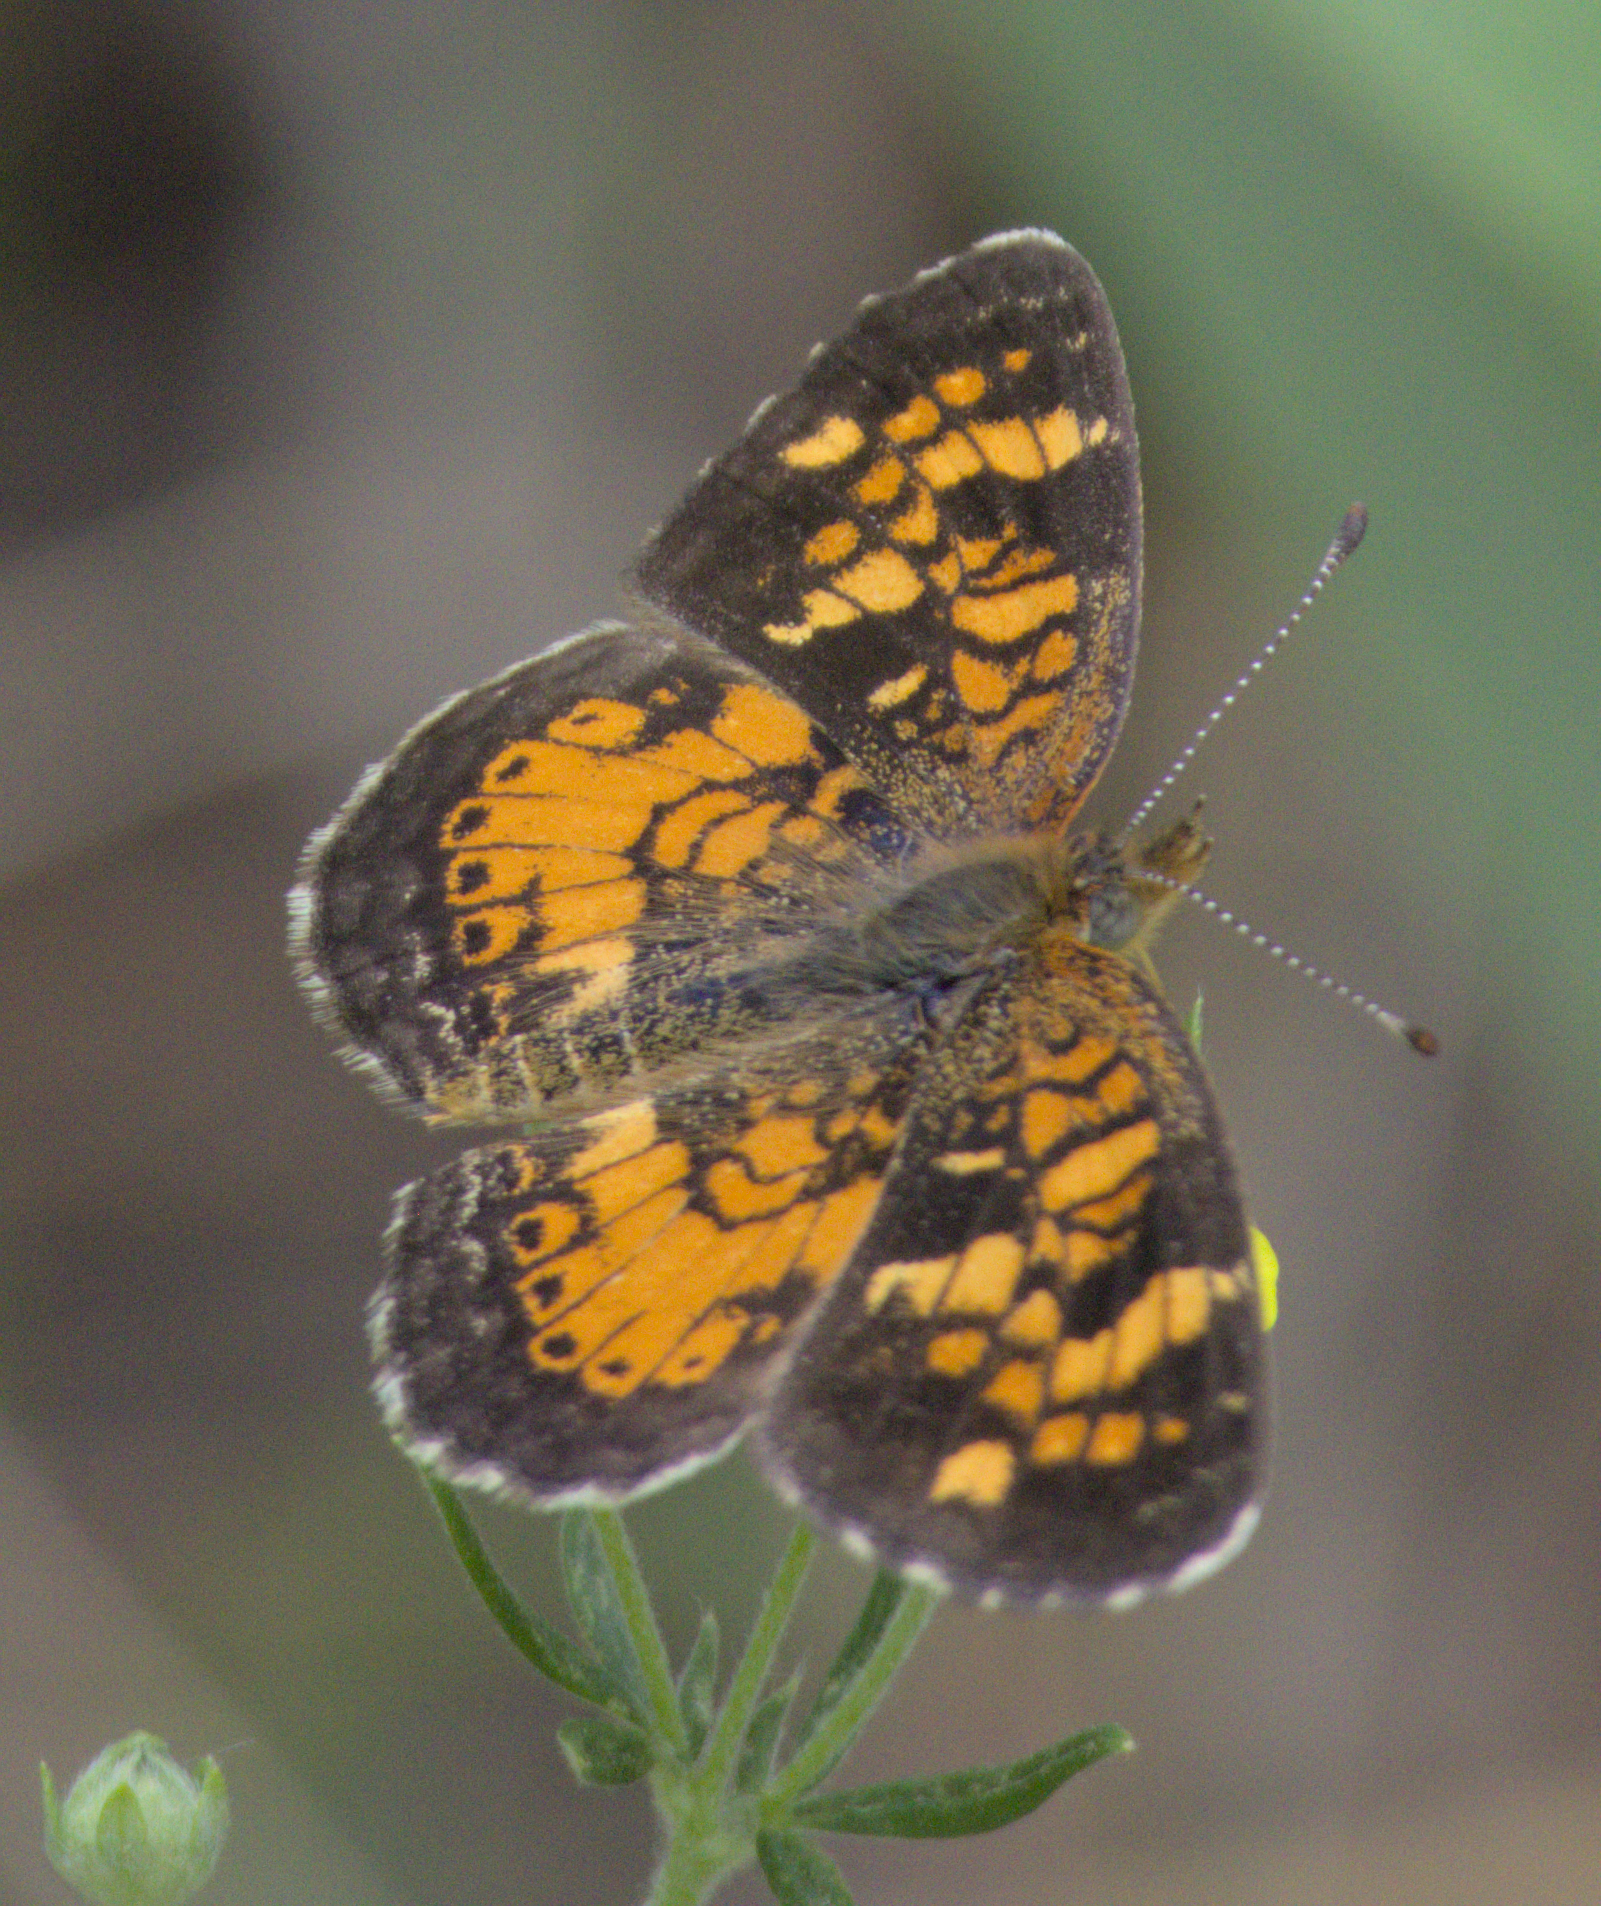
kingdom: Animalia
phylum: Arthropoda
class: Insecta
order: Lepidoptera
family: Nymphalidae
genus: Phyciodes
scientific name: Phyciodes tharos
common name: Pearl crescent
